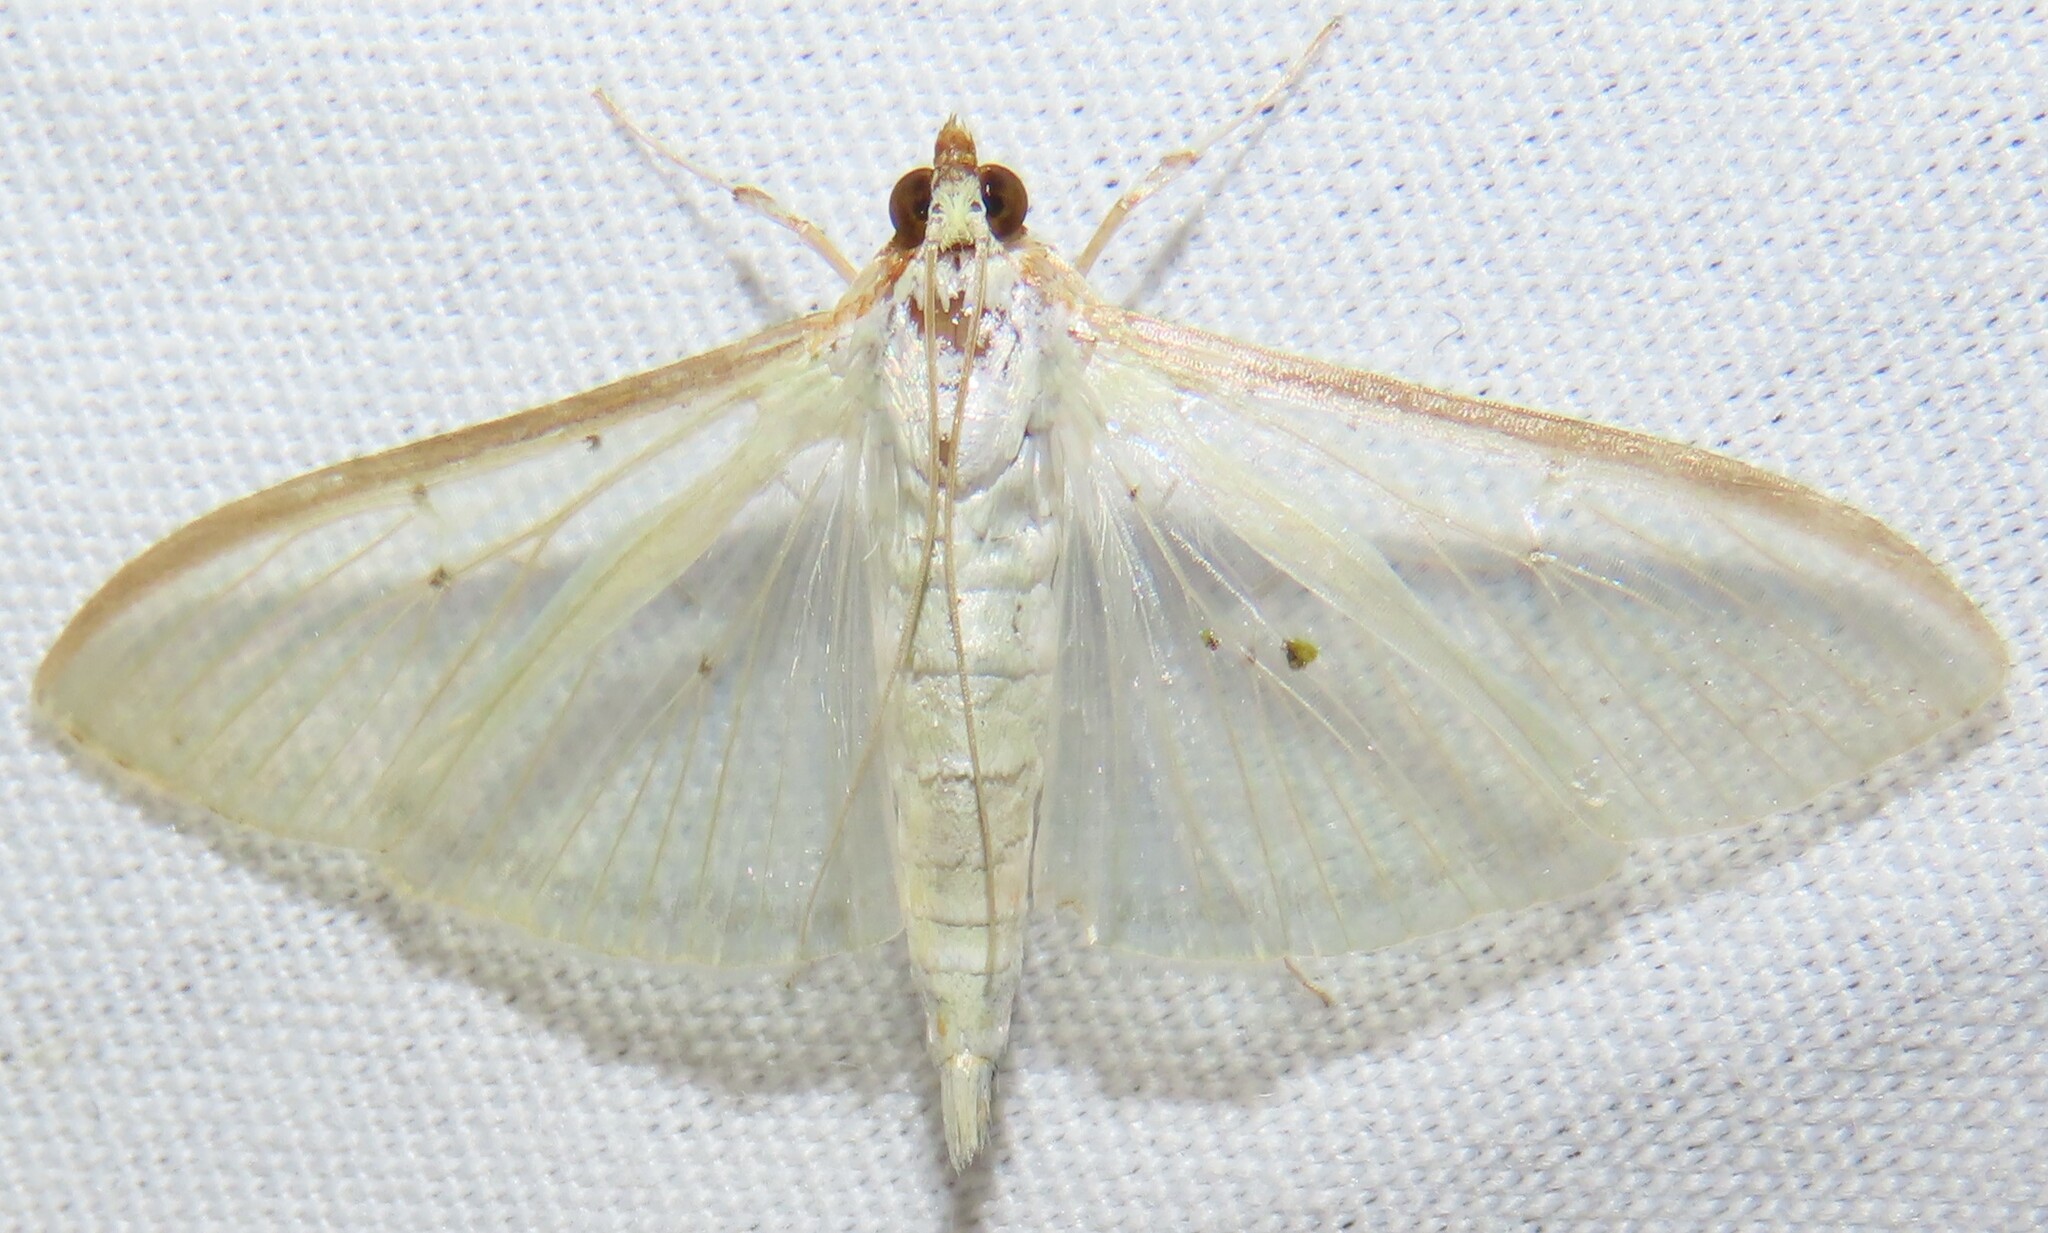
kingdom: Animalia
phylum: Arthropoda
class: Insecta
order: Lepidoptera
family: Crambidae
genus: Palpita
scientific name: Palpita quadristigmalis
